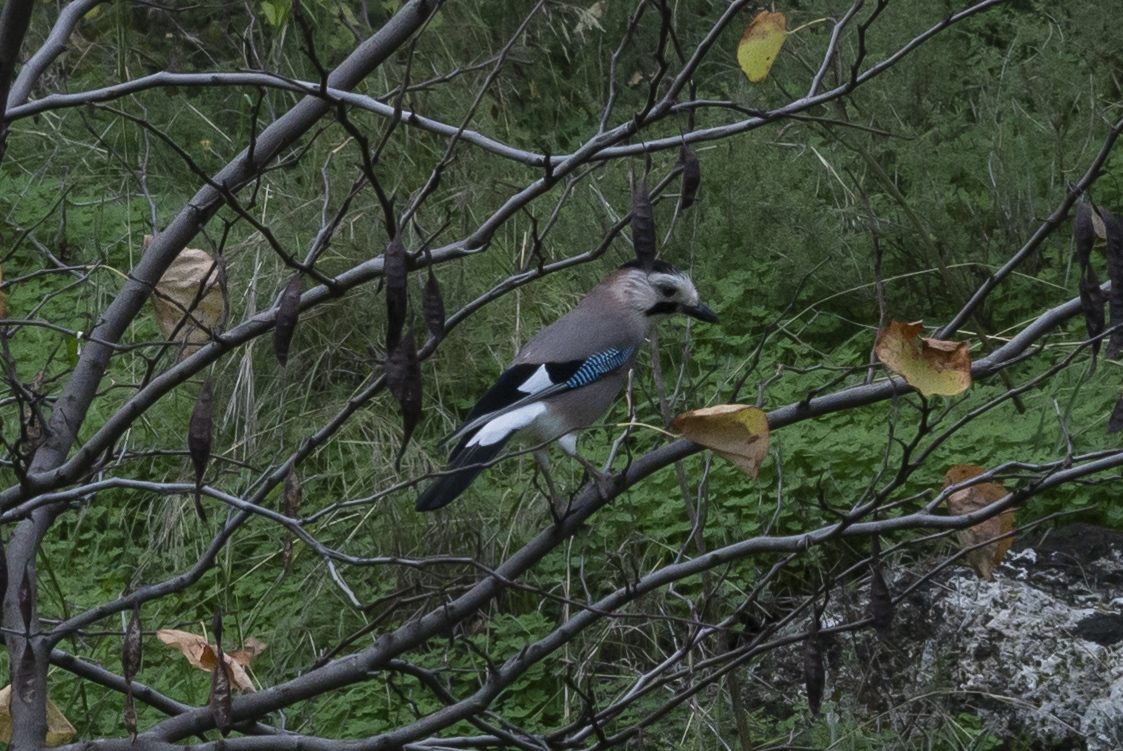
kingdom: Animalia
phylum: Chordata
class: Aves
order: Passeriformes
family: Corvidae
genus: Garrulus
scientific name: Garrulus glandarius
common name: Eurasian jay
